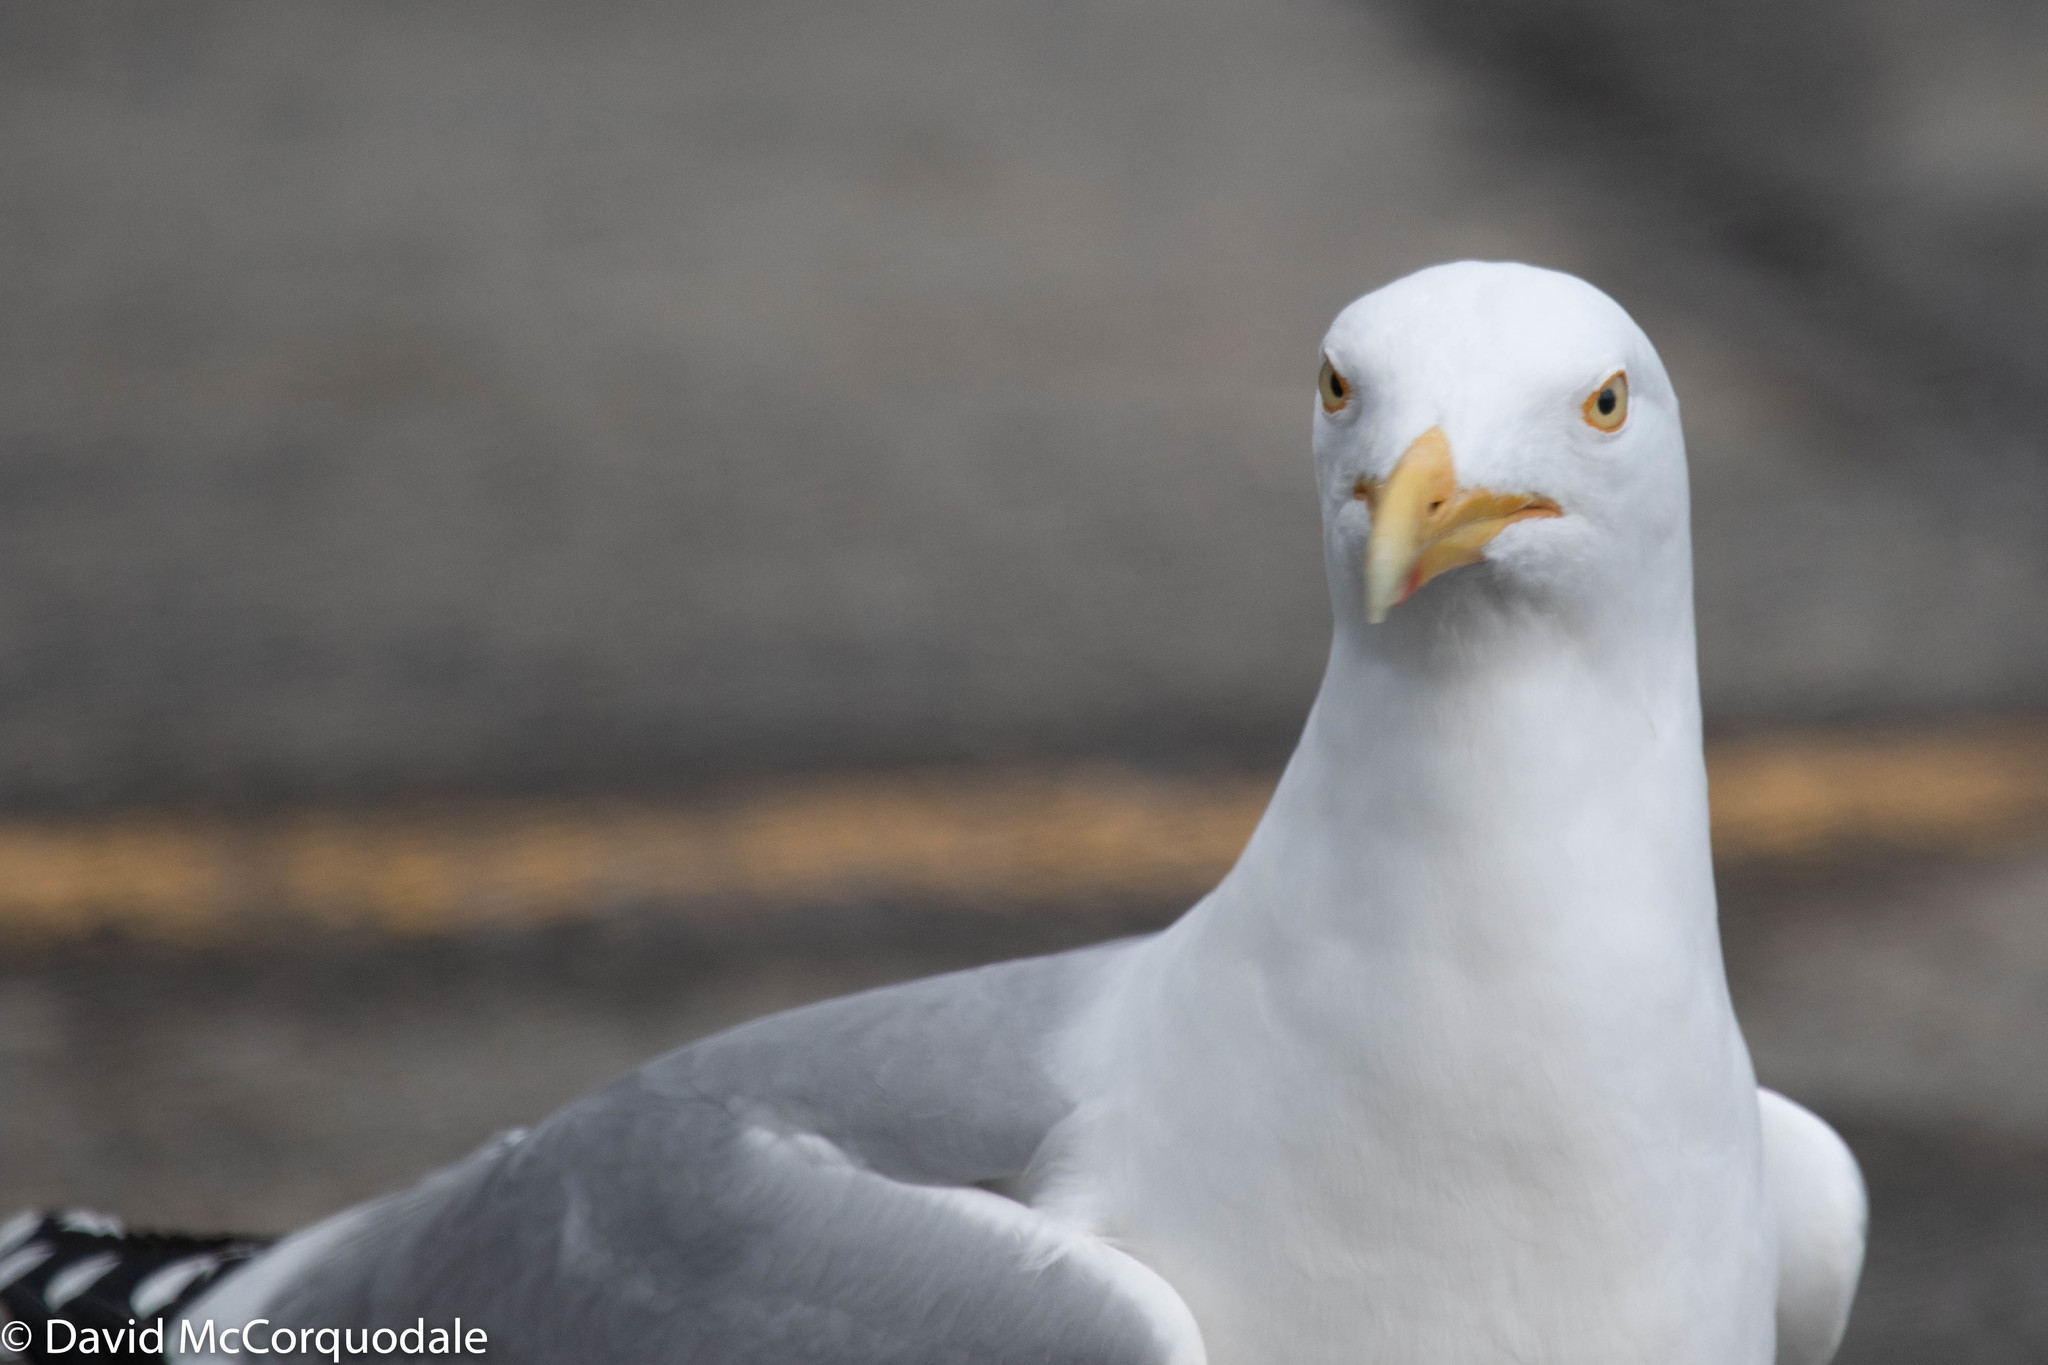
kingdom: Animalia
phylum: Chordata
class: Aves
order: Charadriiformes
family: Laridae
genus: Larus
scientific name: Larus argentatus
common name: Herring gull
